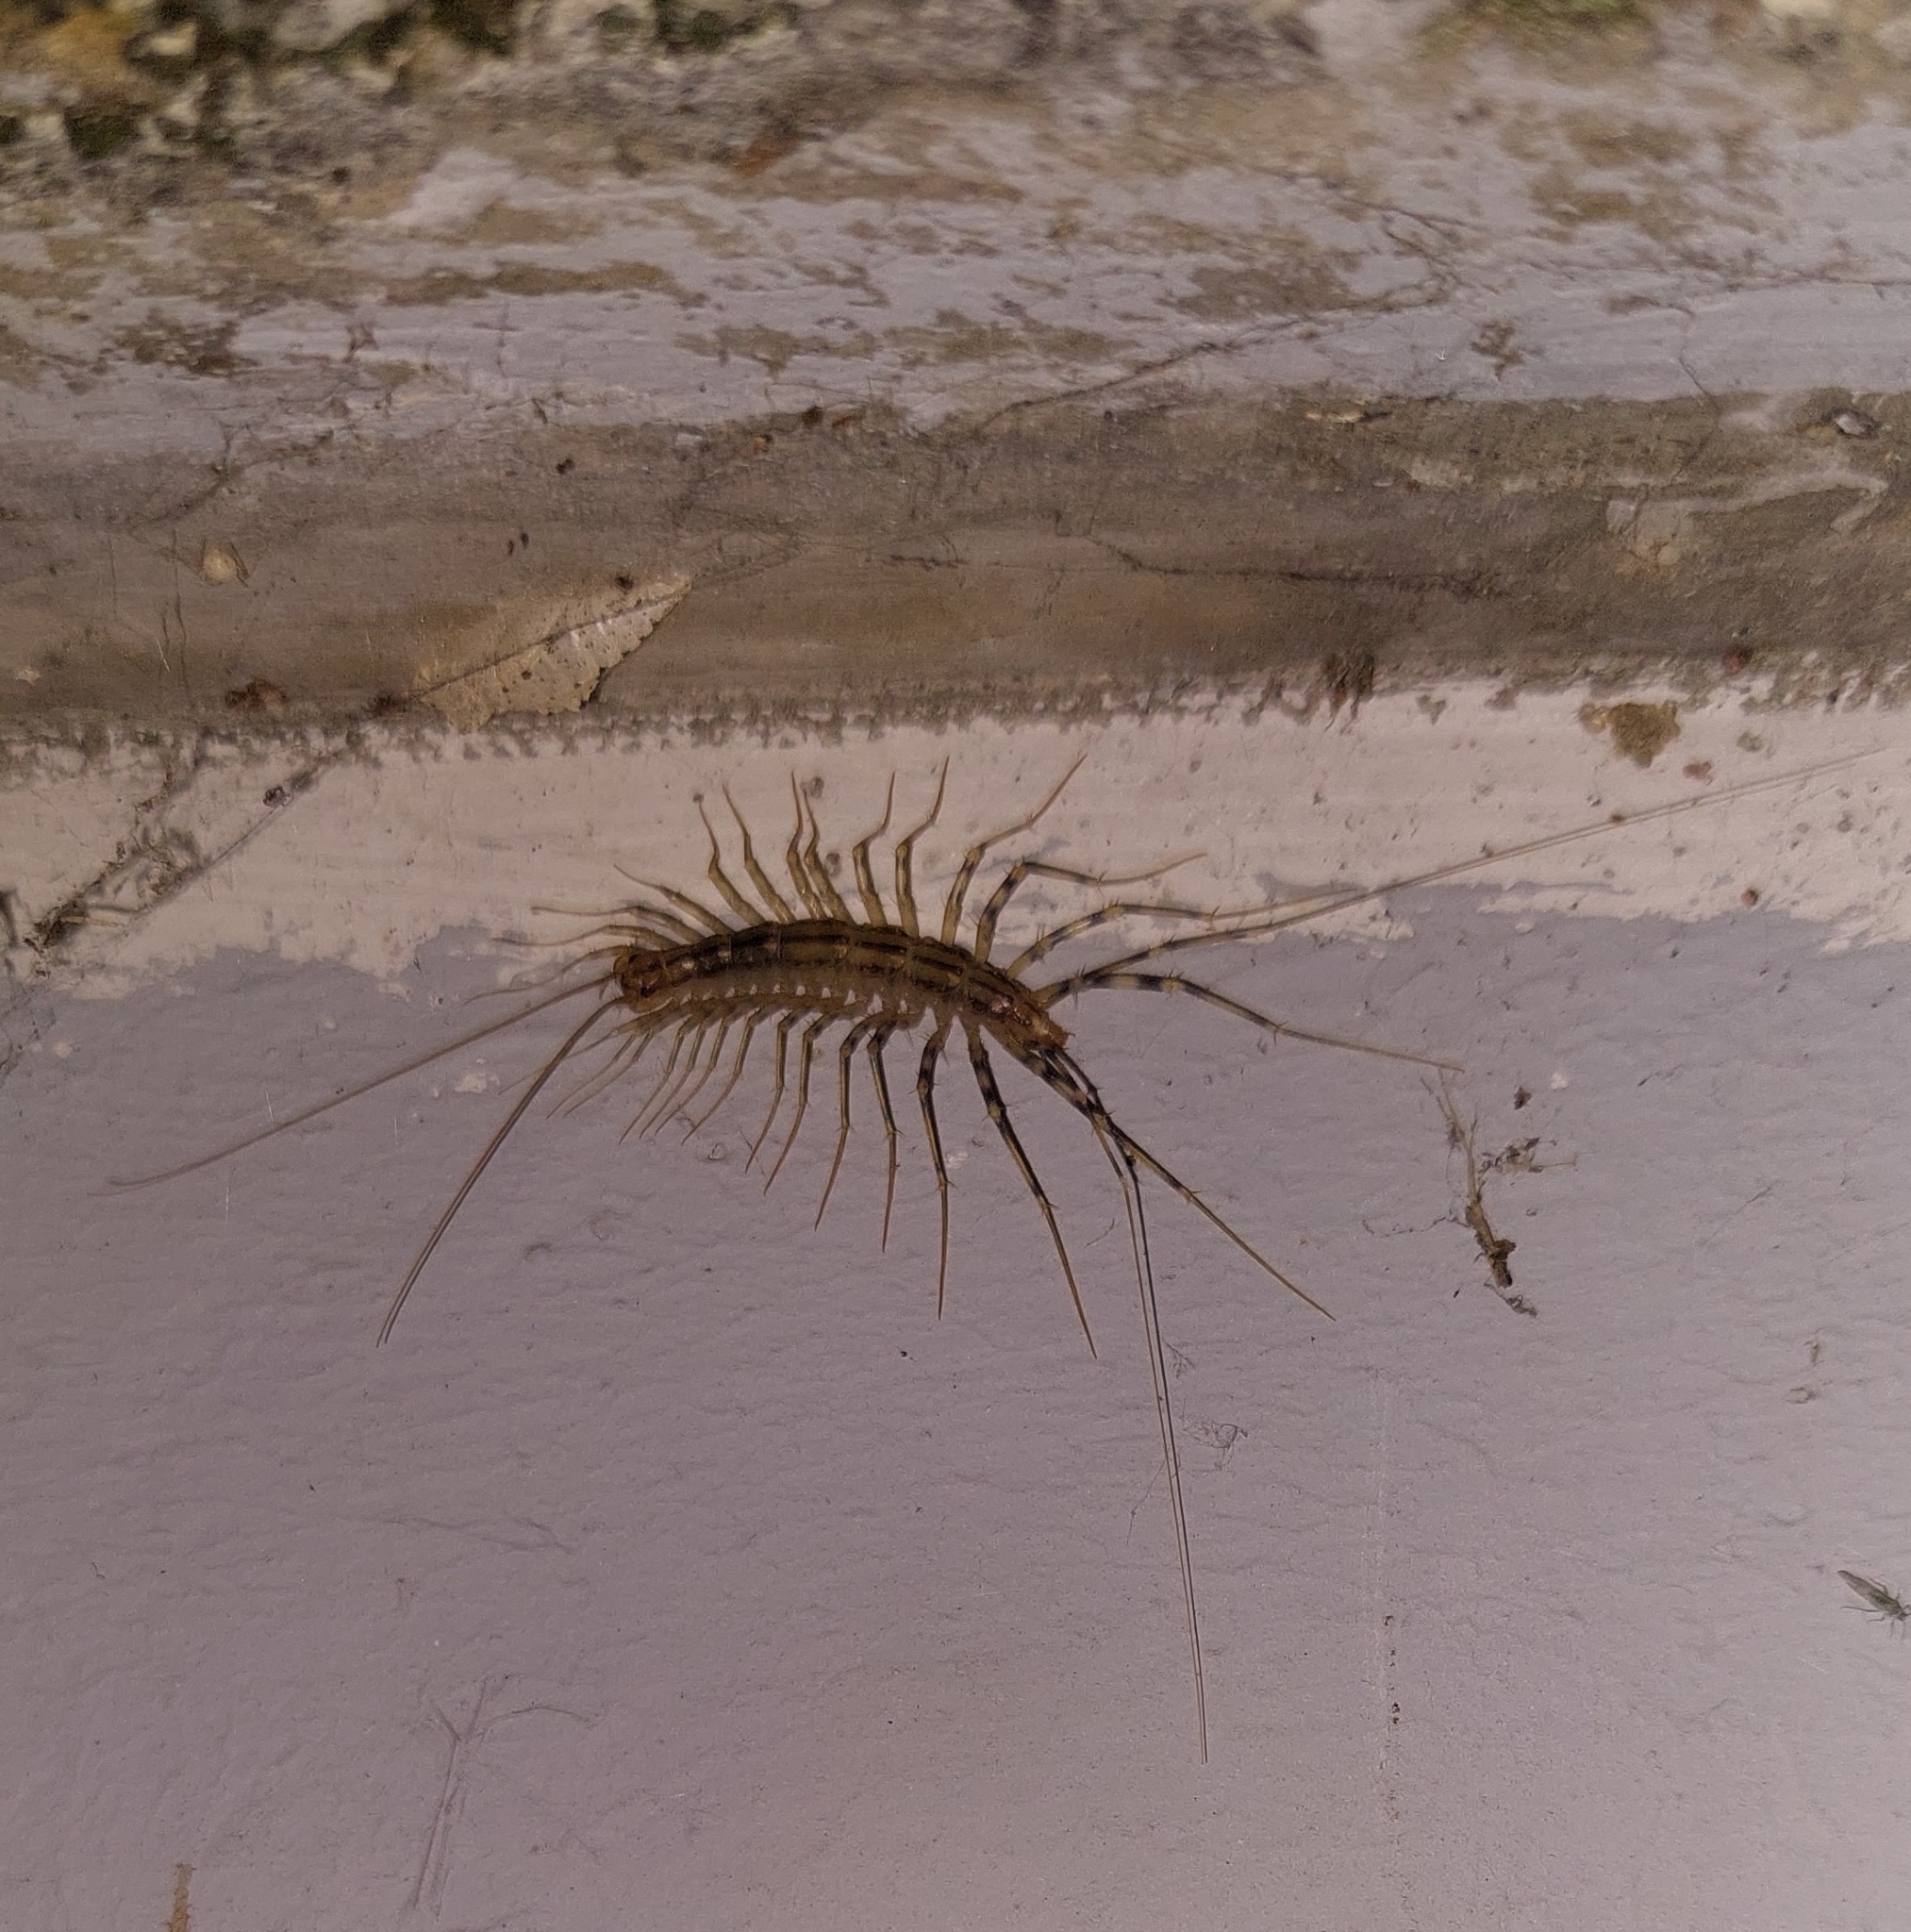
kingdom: Animalia
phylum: Arthropoda
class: Chilopoda
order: Scutigeromorpha
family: Scutigeridae
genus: Scutigera
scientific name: Scutigera coleoptrata
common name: House centipede
